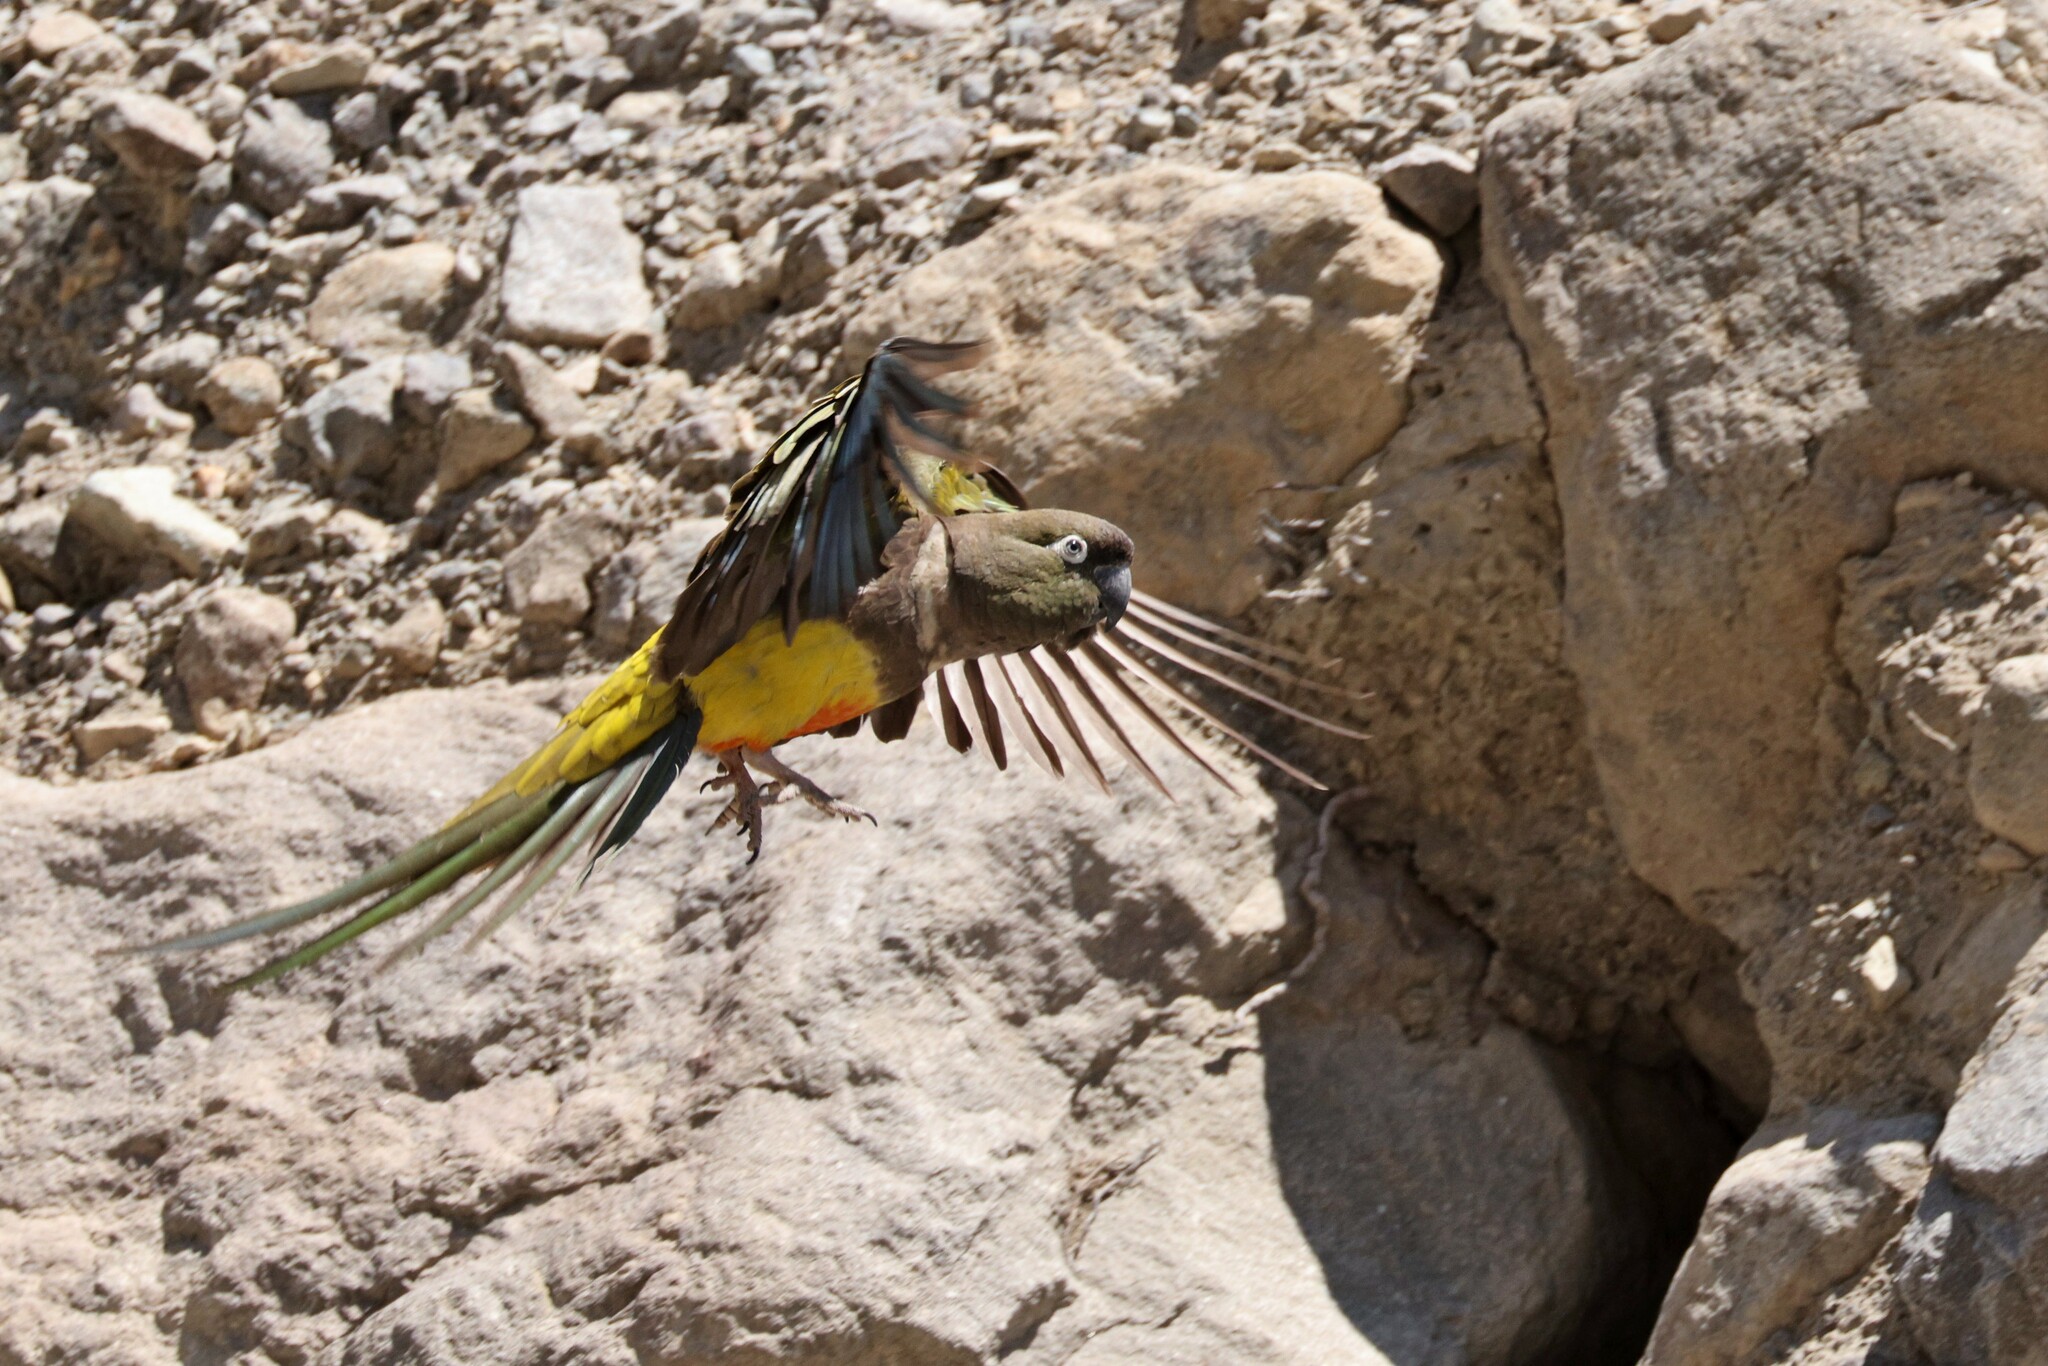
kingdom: Animalia
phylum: Chordata
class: Aves
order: Psittaciformes
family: Psittacidae
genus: Cyanoliseus
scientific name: Cyanoliseus patagonus
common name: Burrowing parrot
